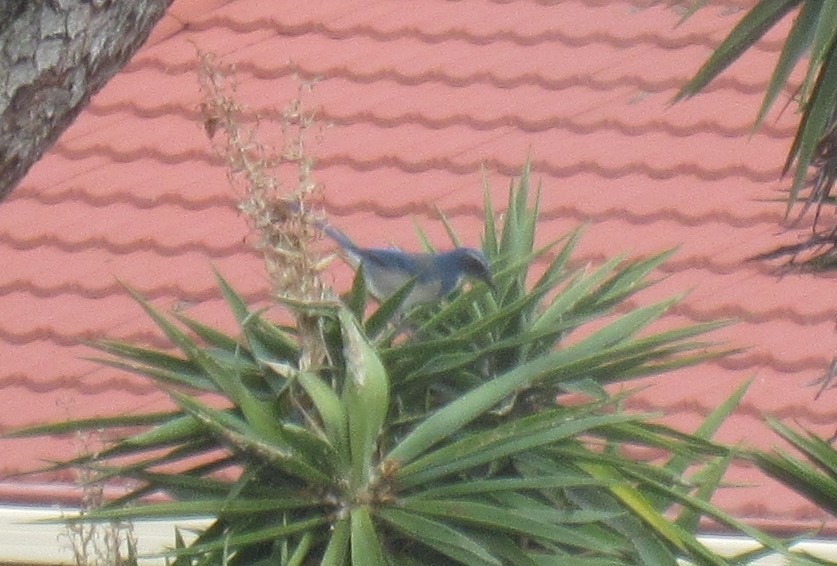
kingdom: Animalia
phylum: Chordata
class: Aves
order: Passeriformes
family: Corvidae
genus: Aphelocoma
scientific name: Aphelocoma californica
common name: California scrub-jay
